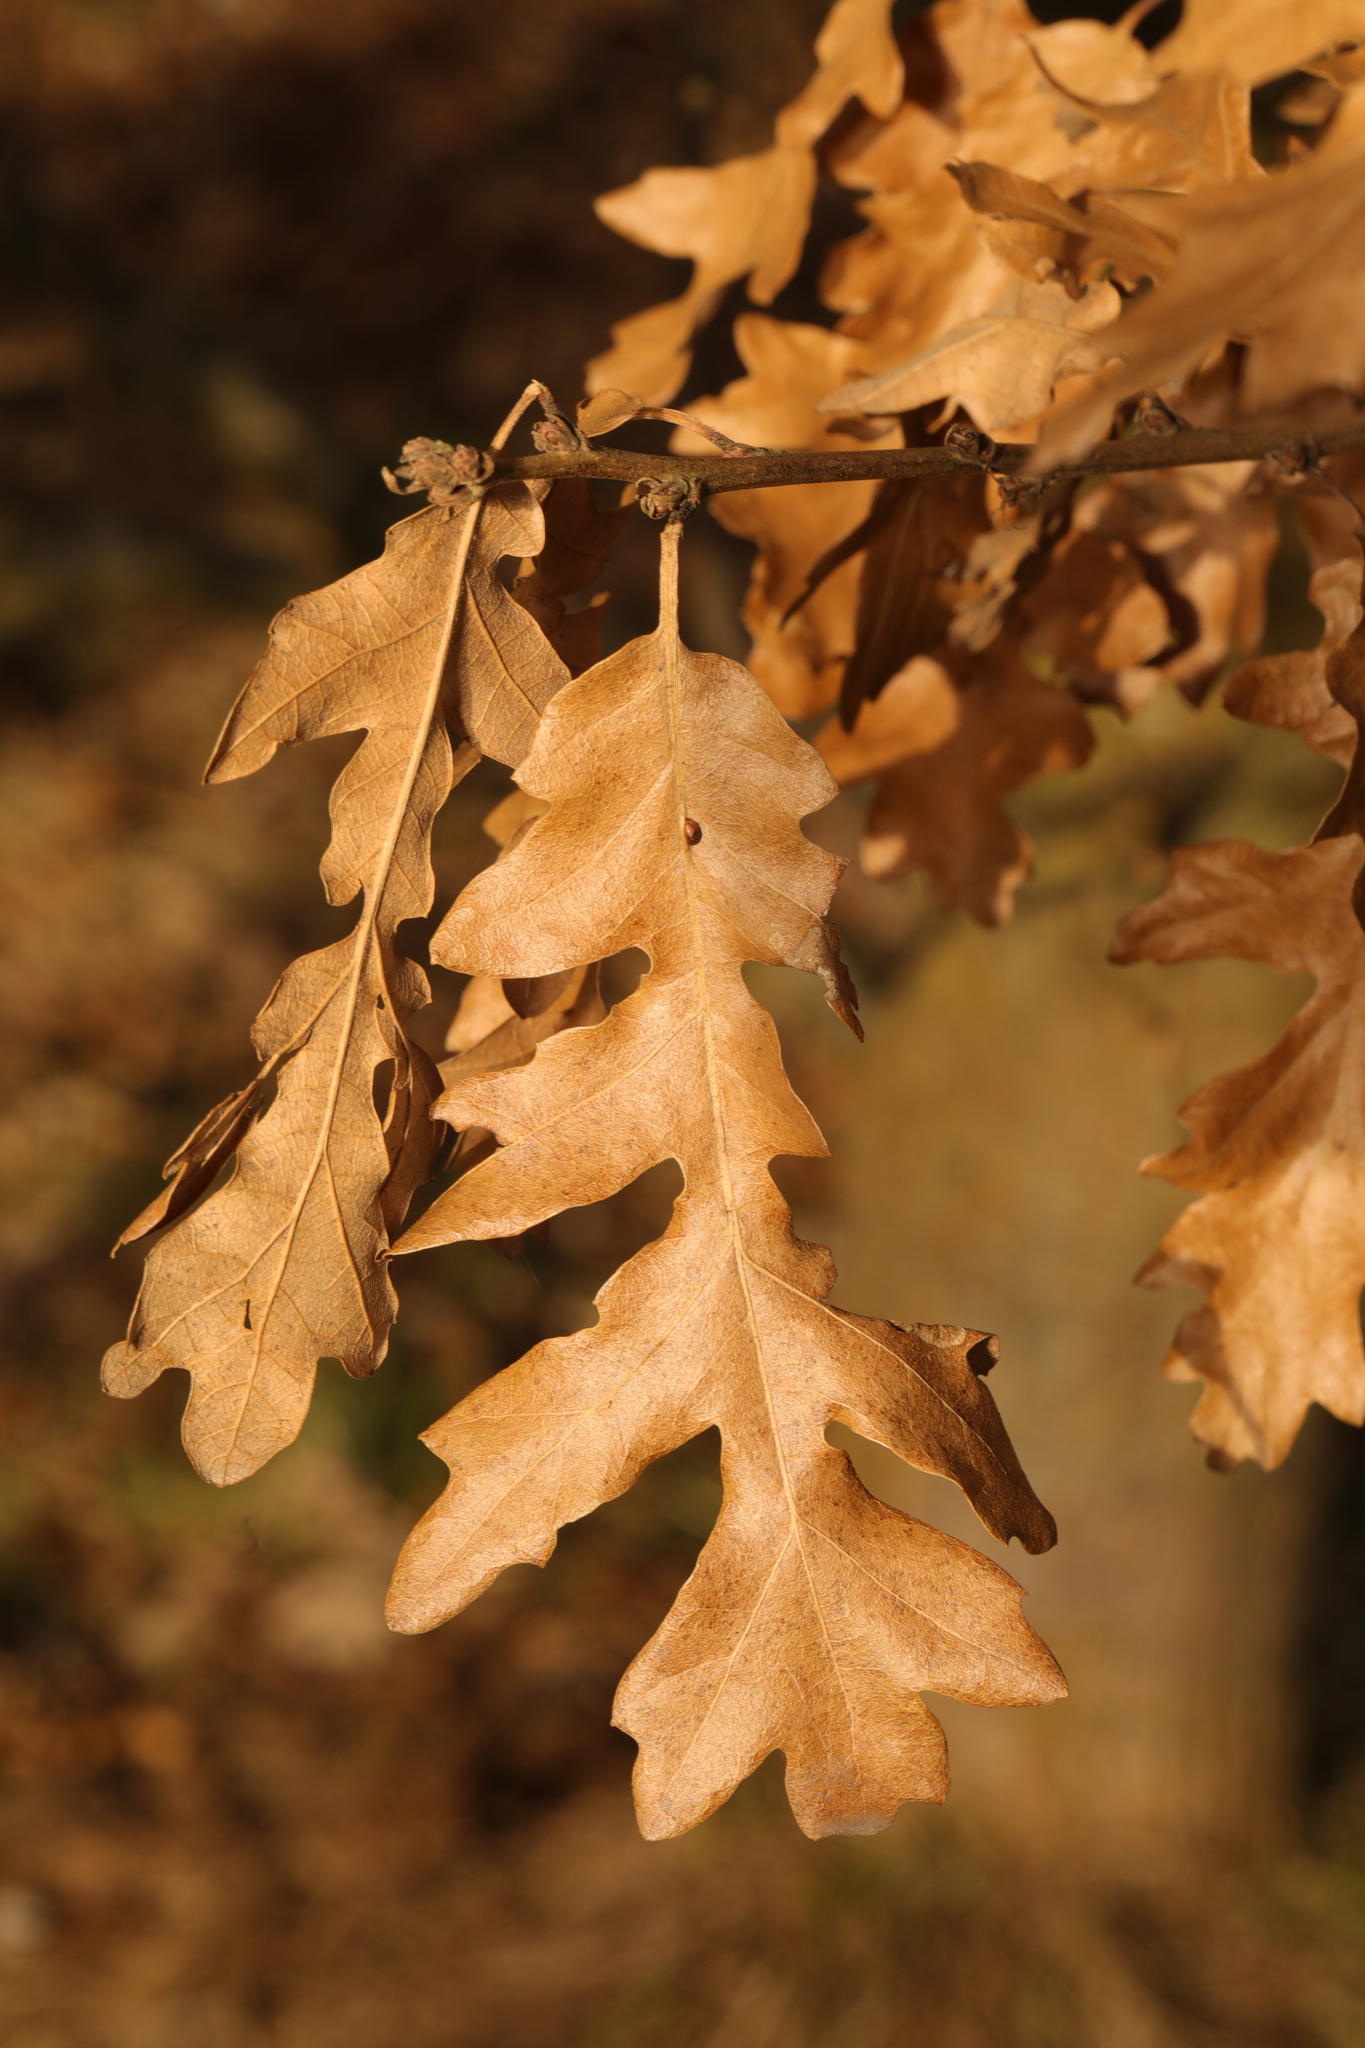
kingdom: Plantae
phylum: Tracheophyta
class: Magnoliopsida
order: Fagales
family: Fagaceae
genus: Quercus
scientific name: Quercus cerris
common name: Turkey oak
